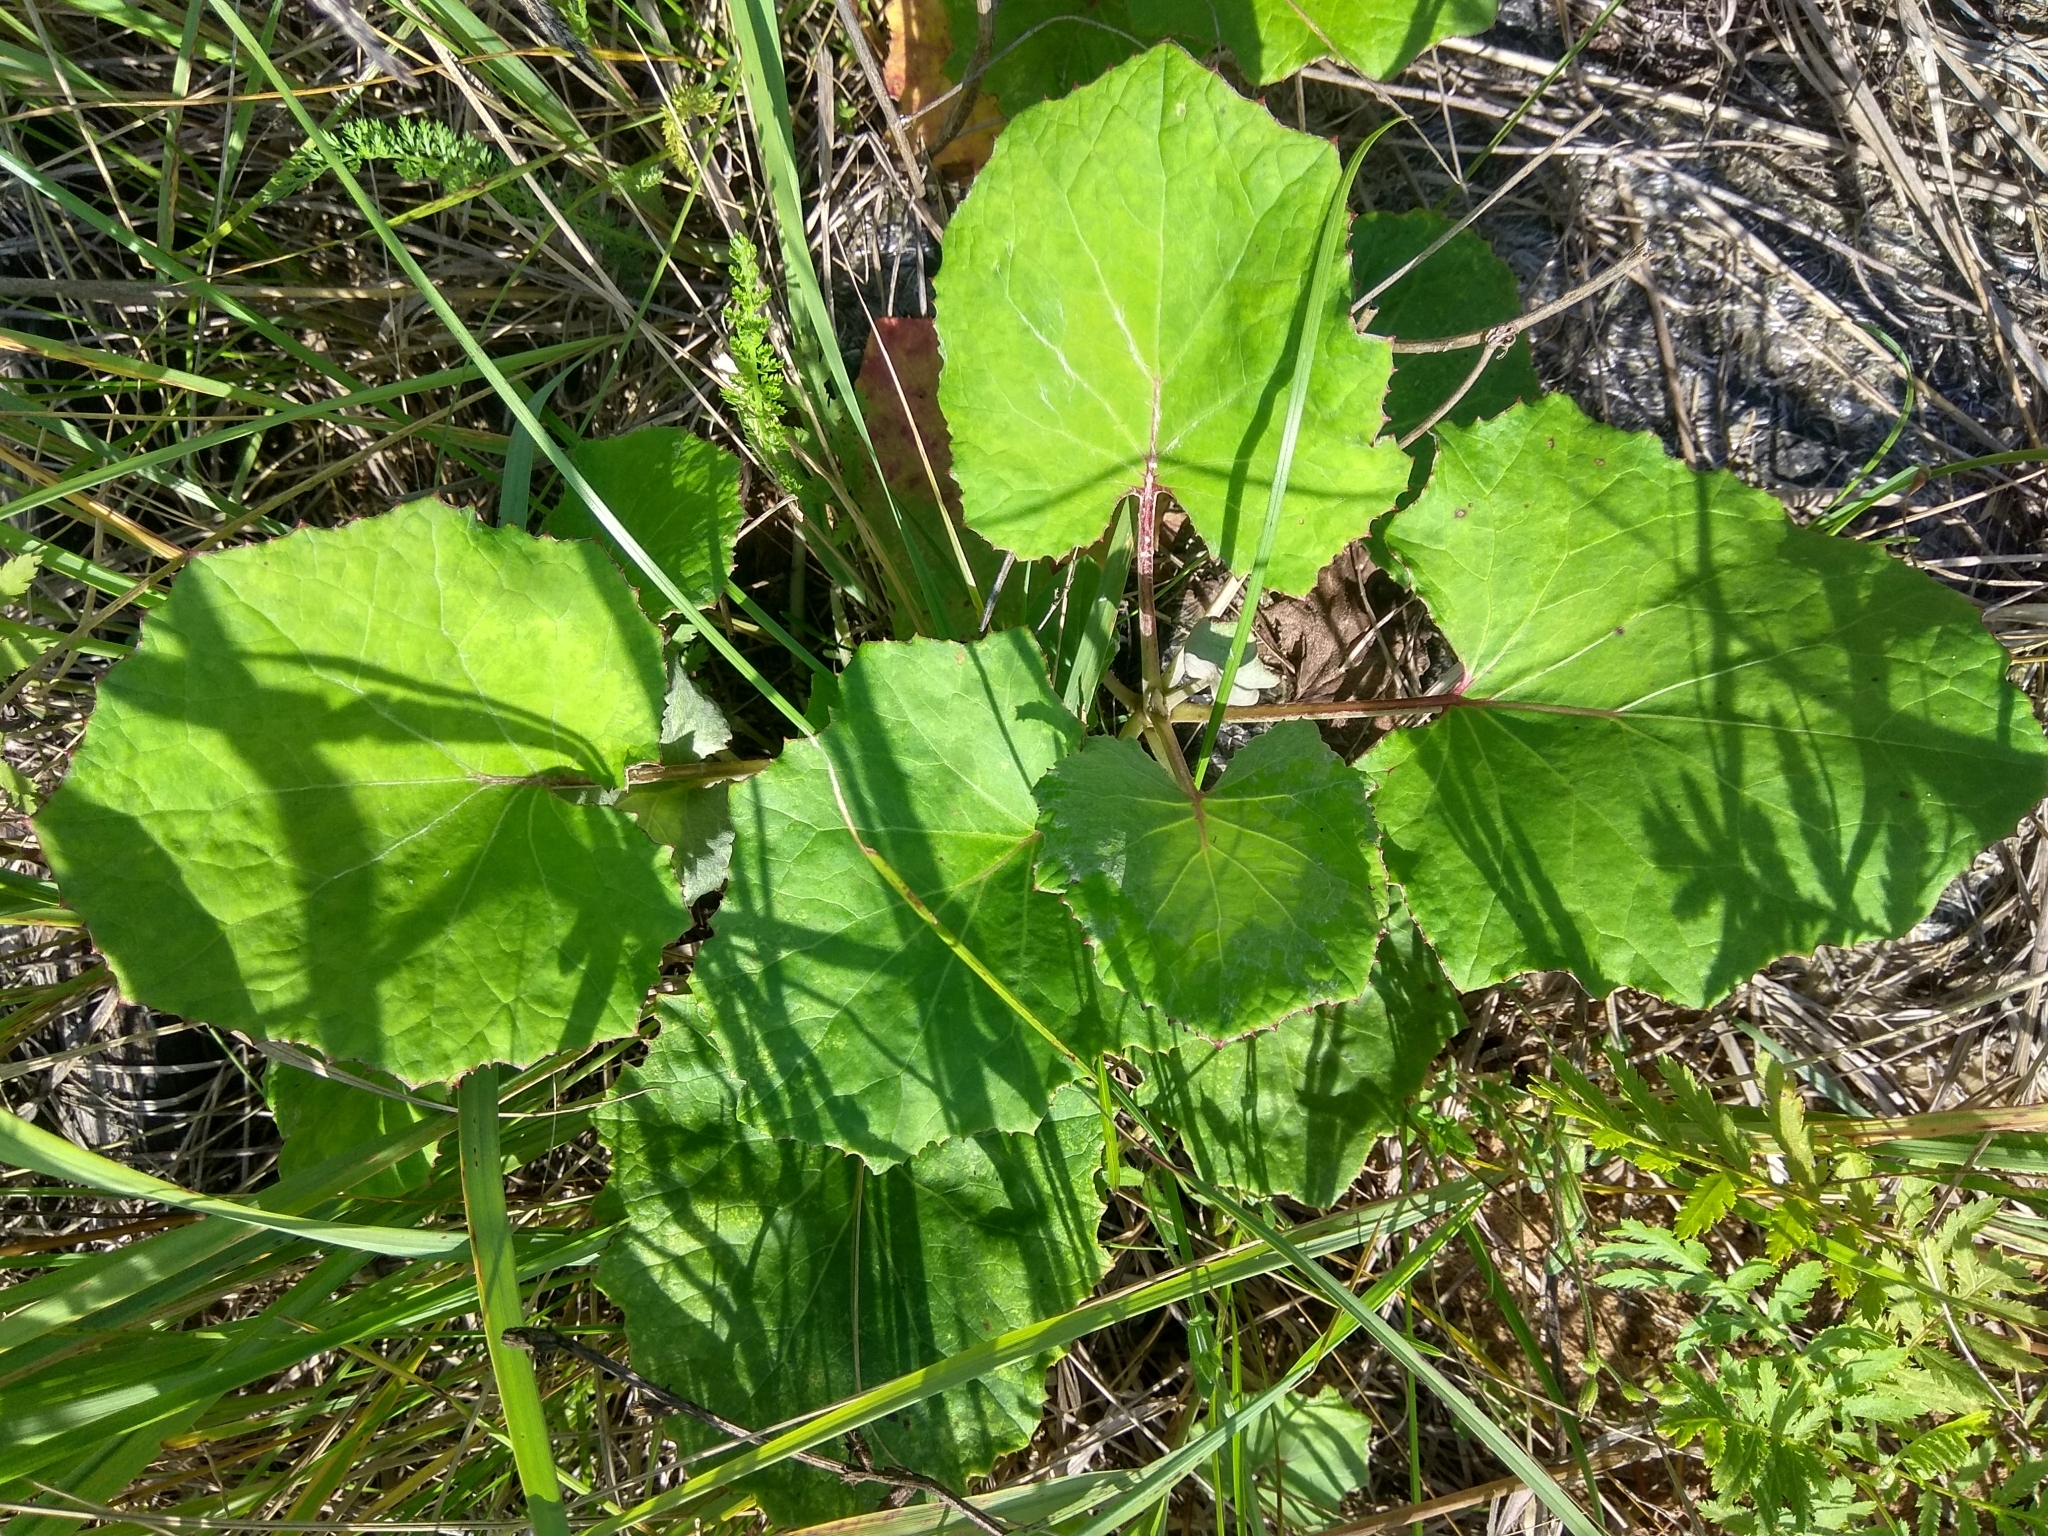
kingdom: Plantae
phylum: Tracheophyta
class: Magnoliopsida
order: Asterales
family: Asteraceae
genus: Tussilago
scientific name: Tussilago farfara
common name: Coltsfoot
